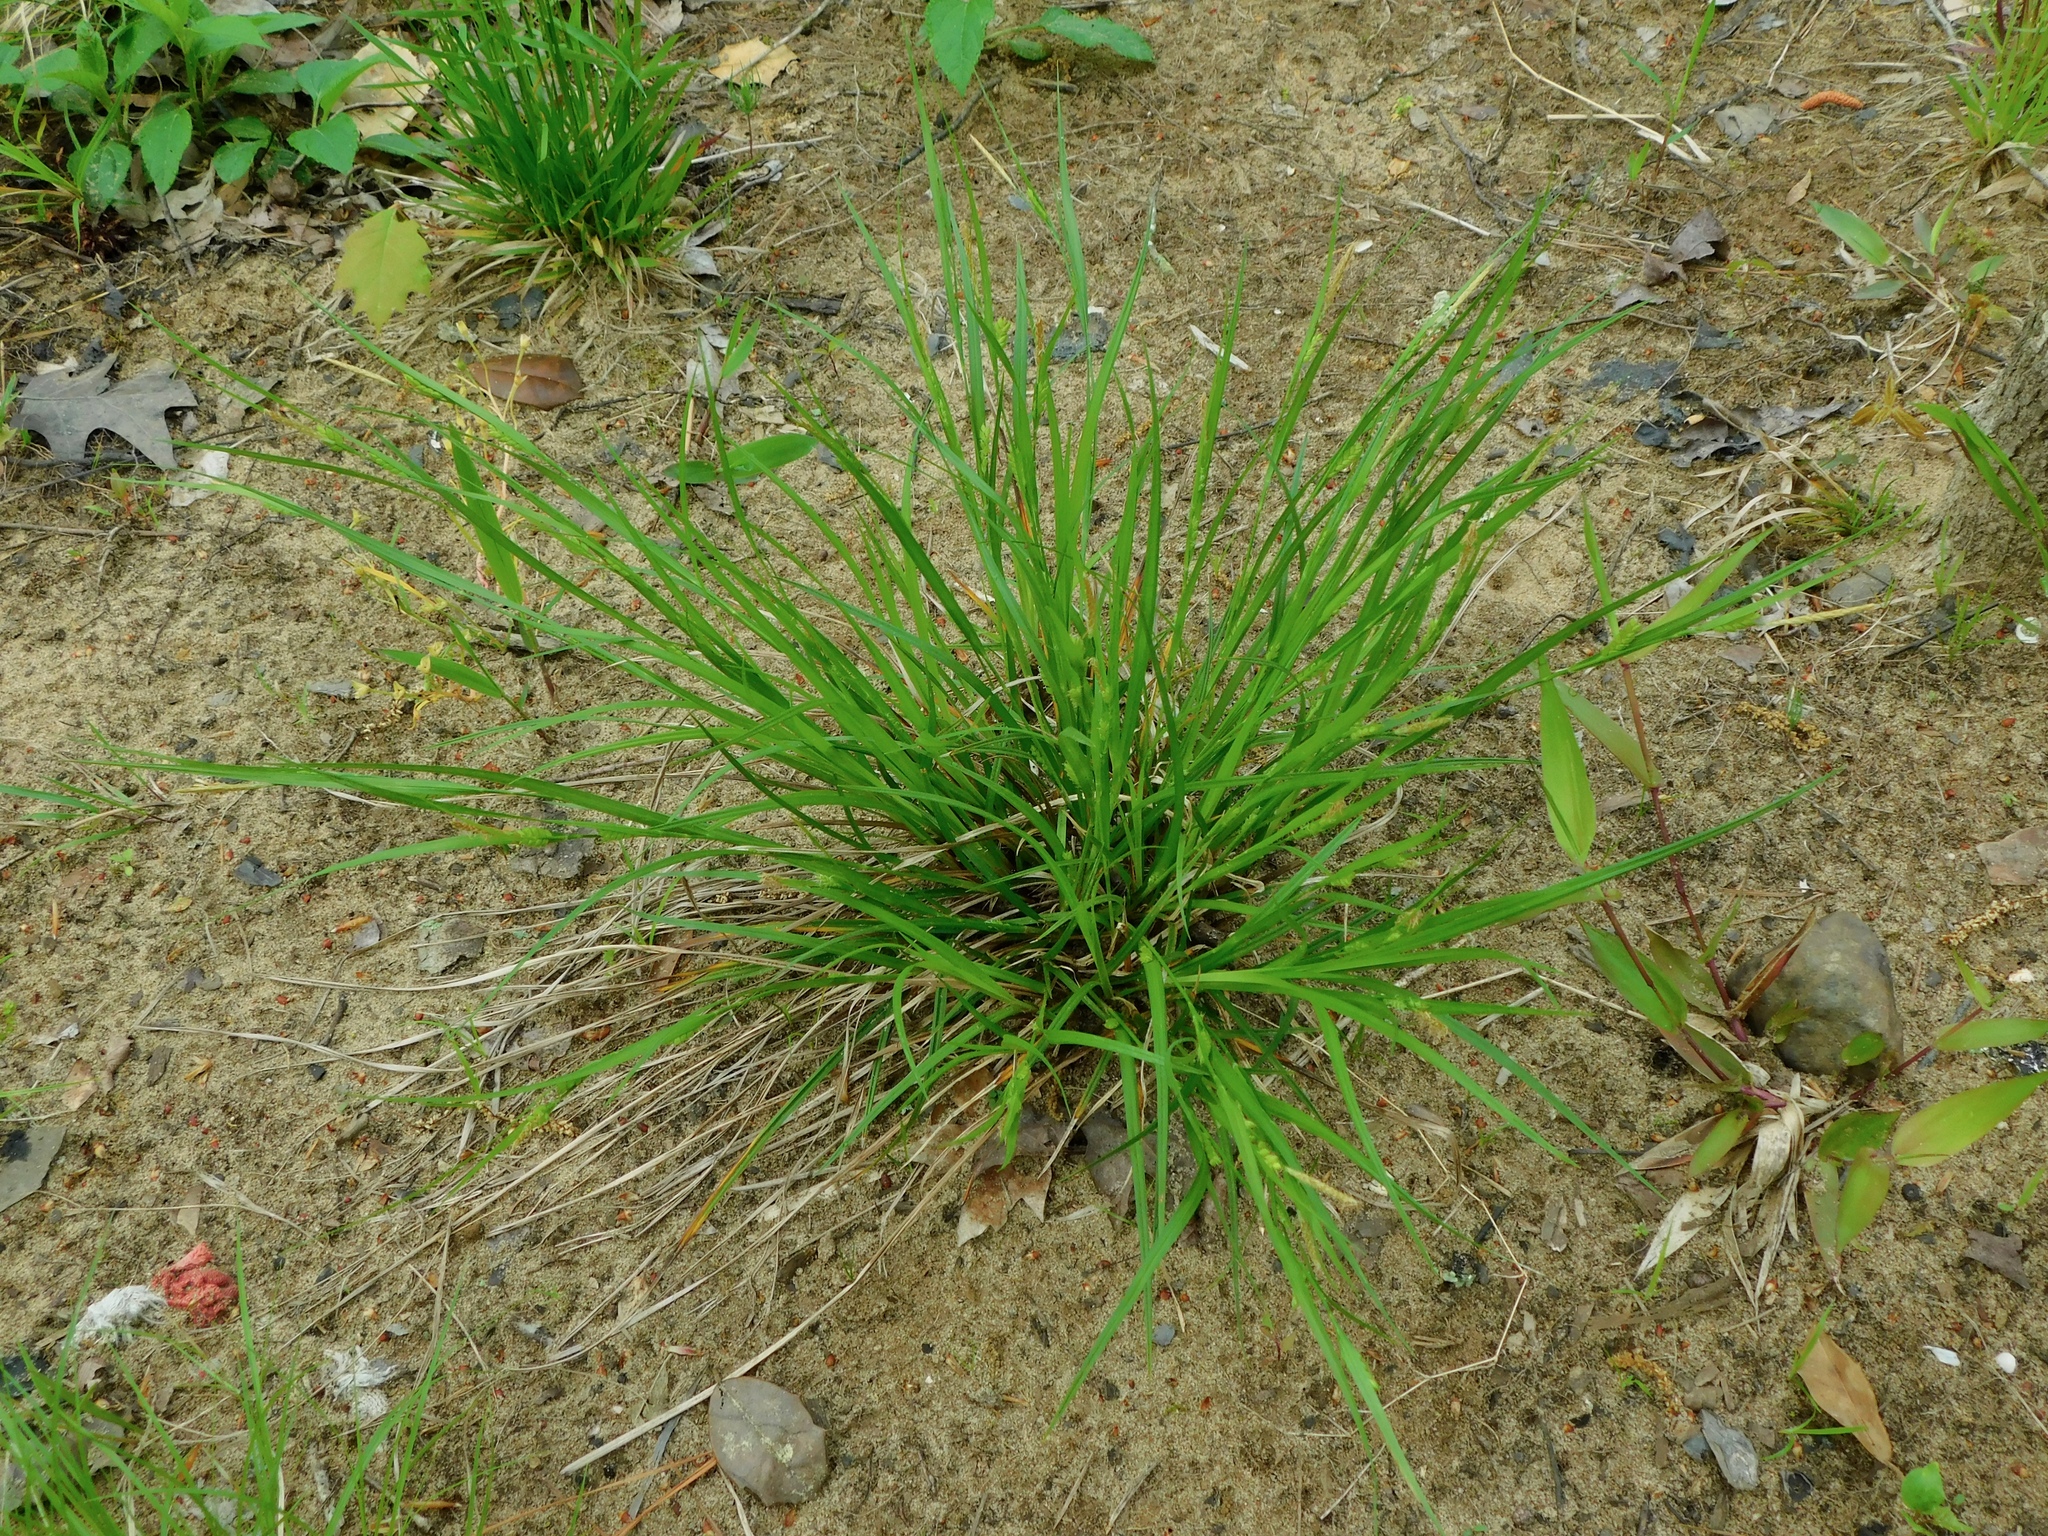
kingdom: Plantae
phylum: Tracheophyta
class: Liliopsida
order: Poales
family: Cyperaceae
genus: Carex
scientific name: Carex planispicata
